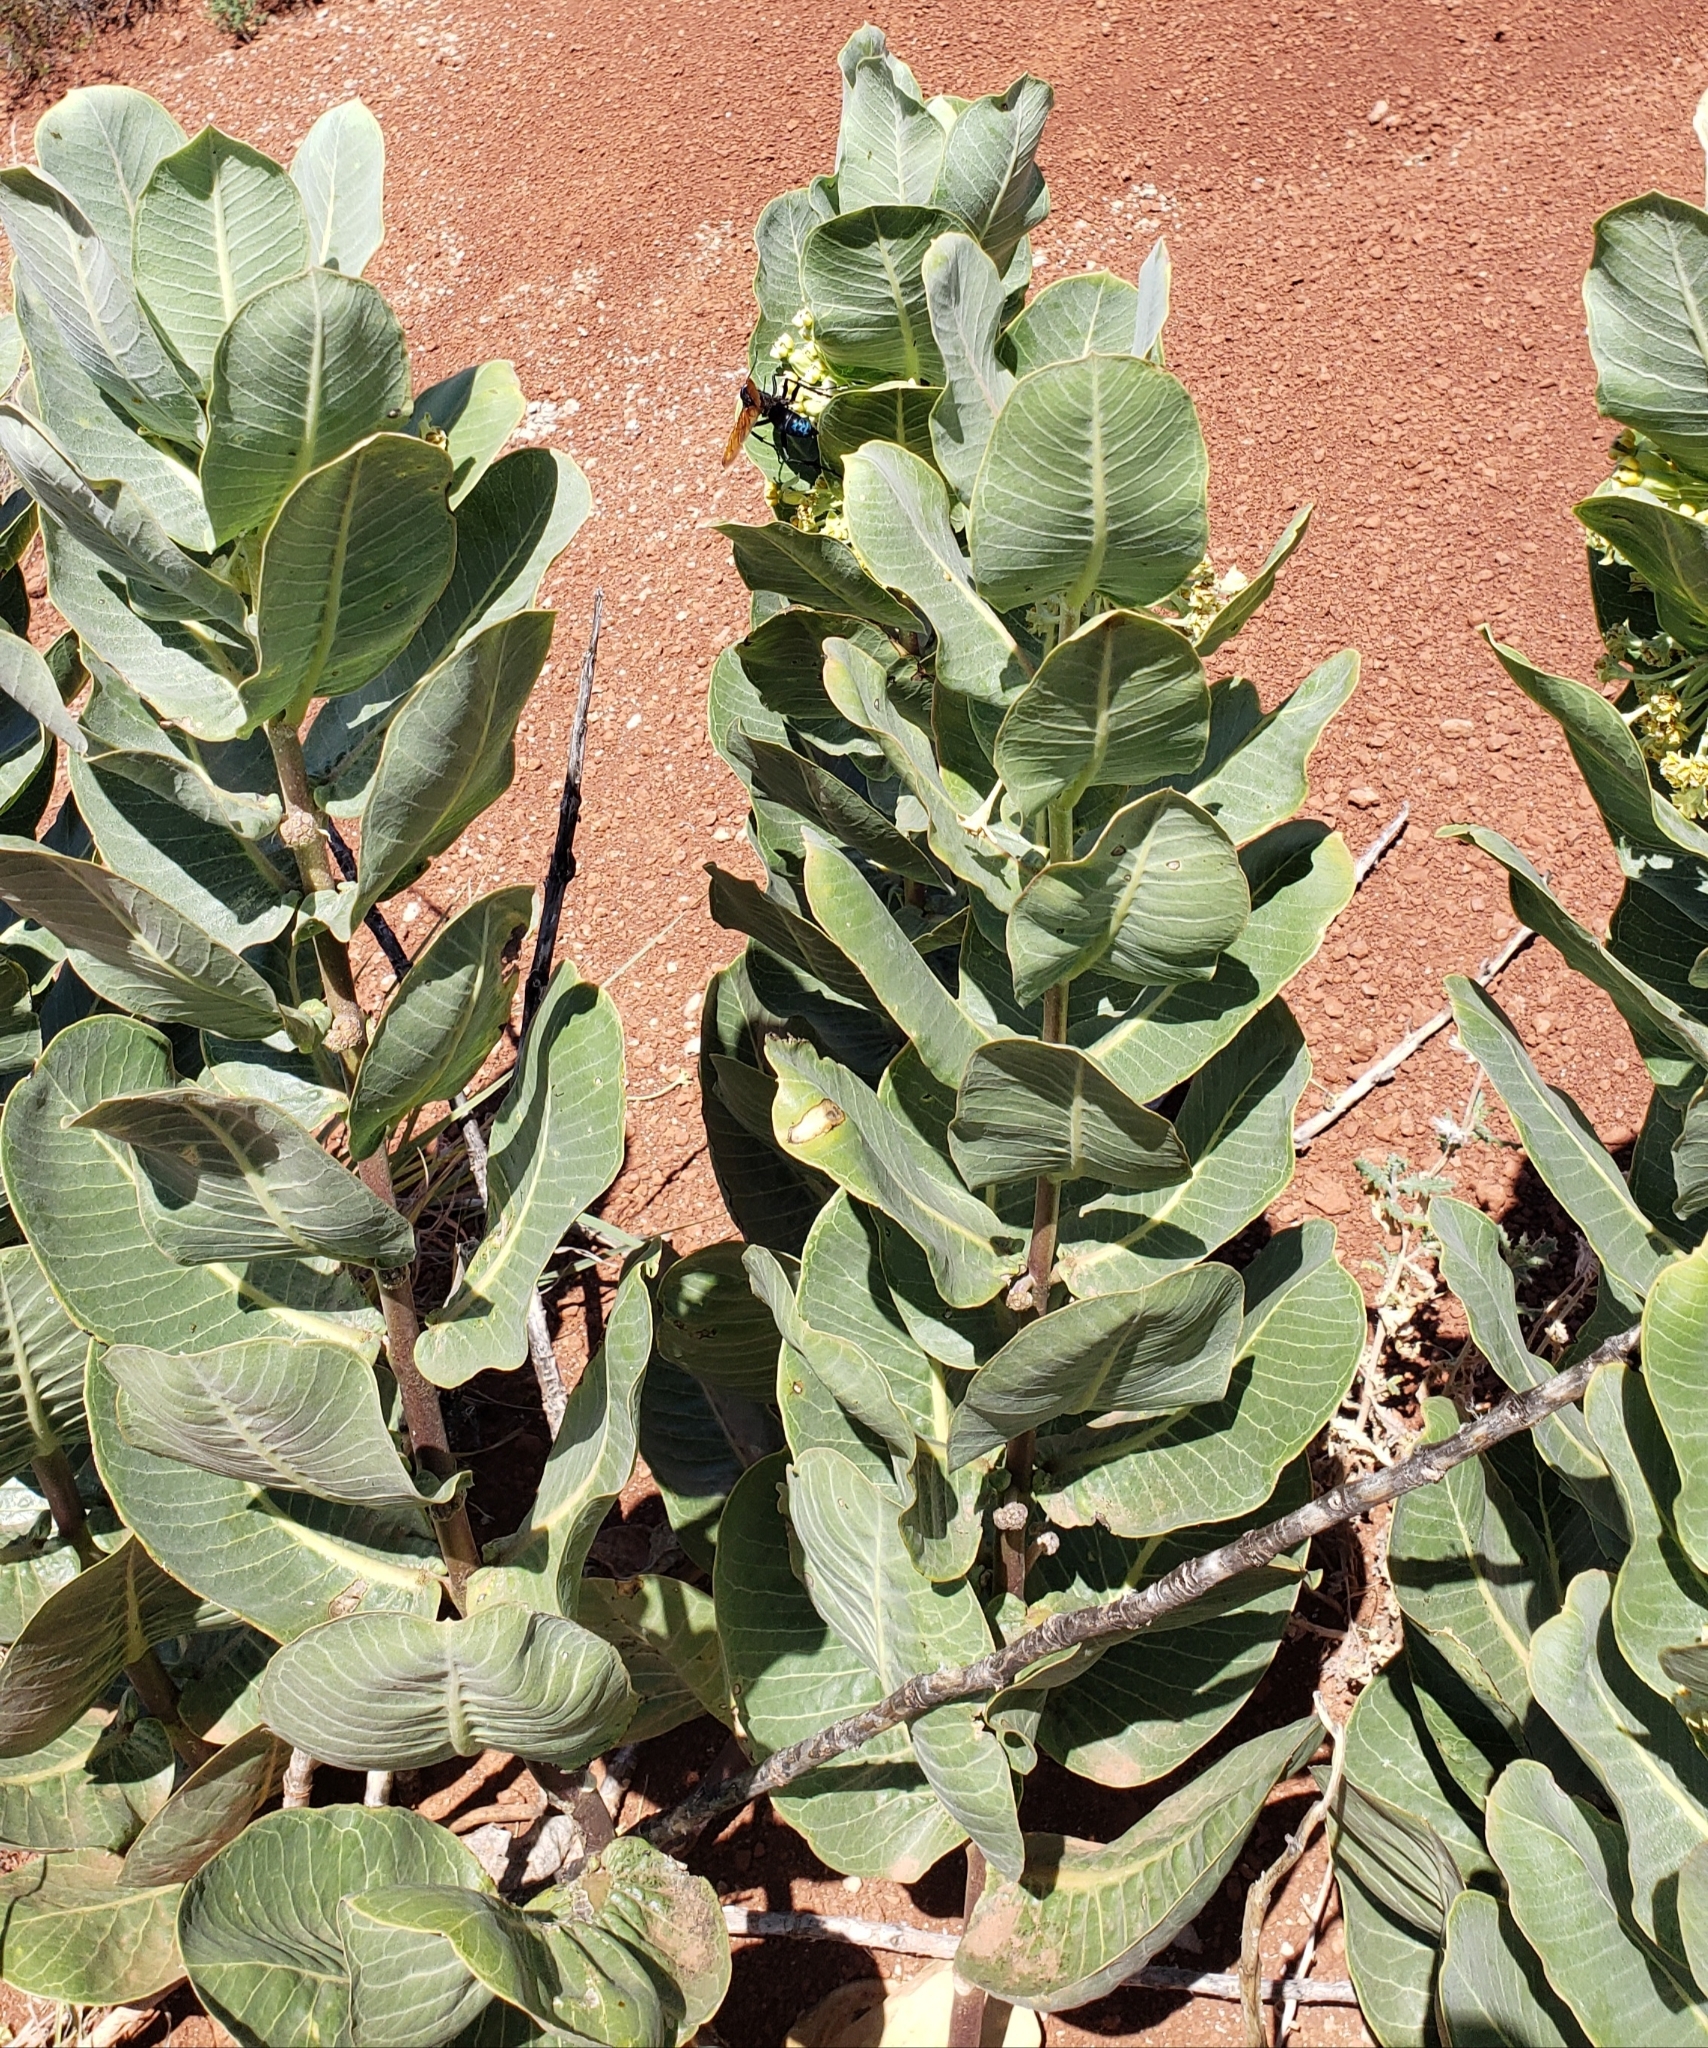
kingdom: Plantae
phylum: Tracheophyta
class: Magnoliopsida
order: Gentianales
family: Apocynaceae
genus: Asclepias
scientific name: Asclepias latifolia
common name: Broadleaf milkweed
